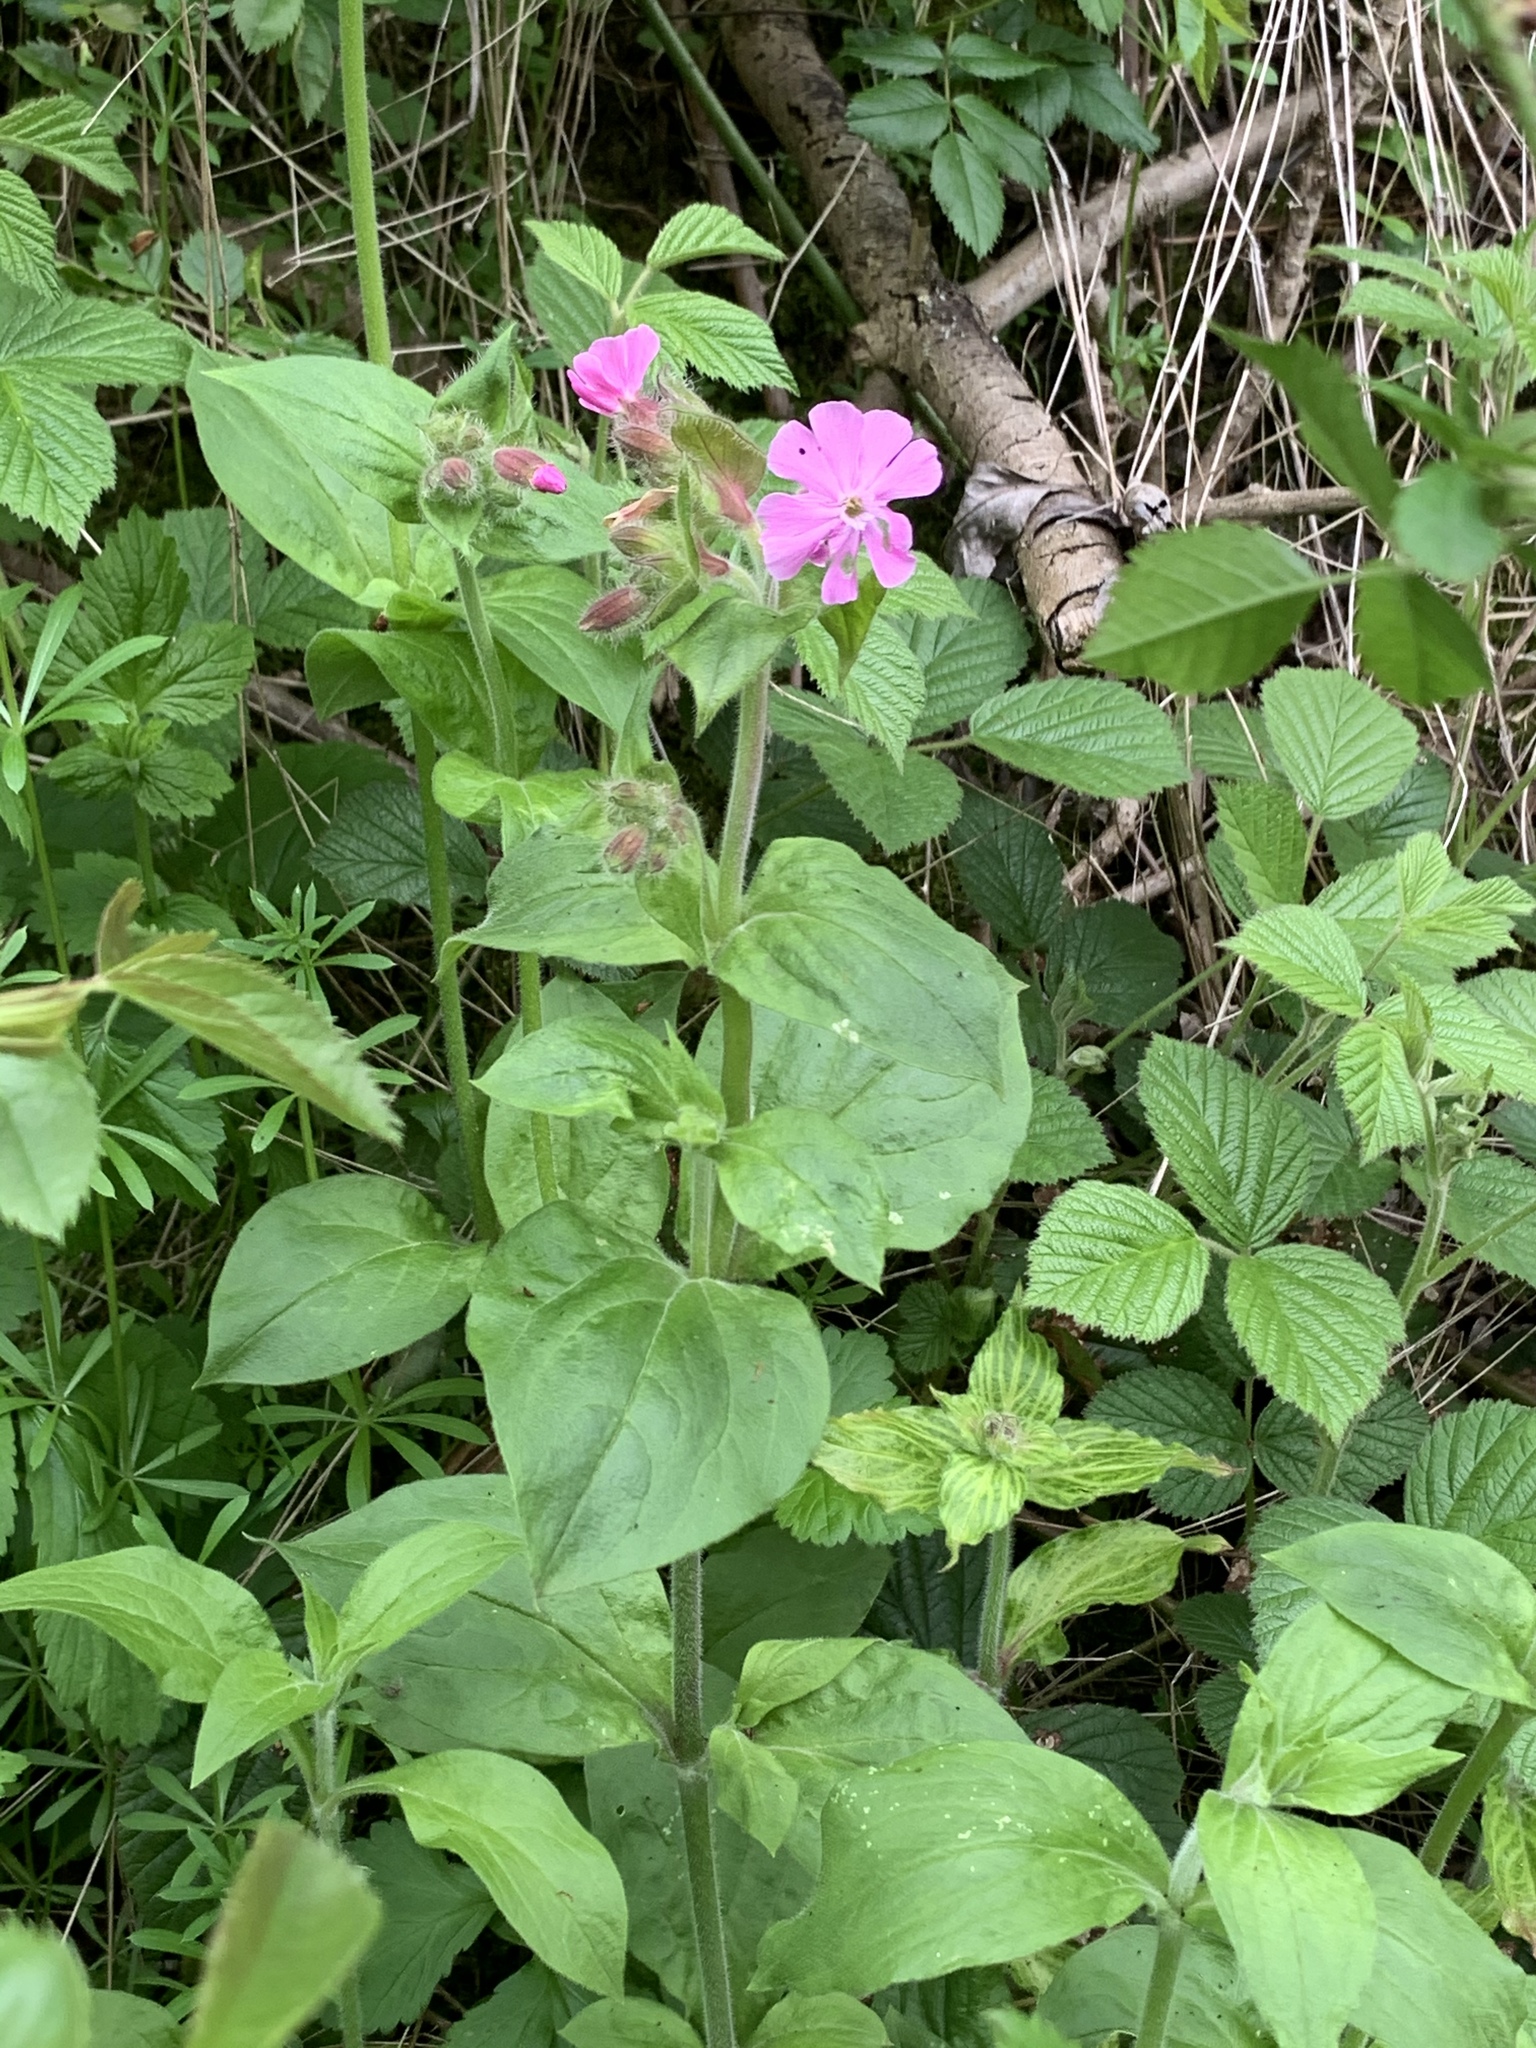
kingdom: Plantae
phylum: Tracheophyta
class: Magnoliopsida
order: Caryophyllales
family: Caryophyllaceae
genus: Silene
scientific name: Silene dioica
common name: Red campion
